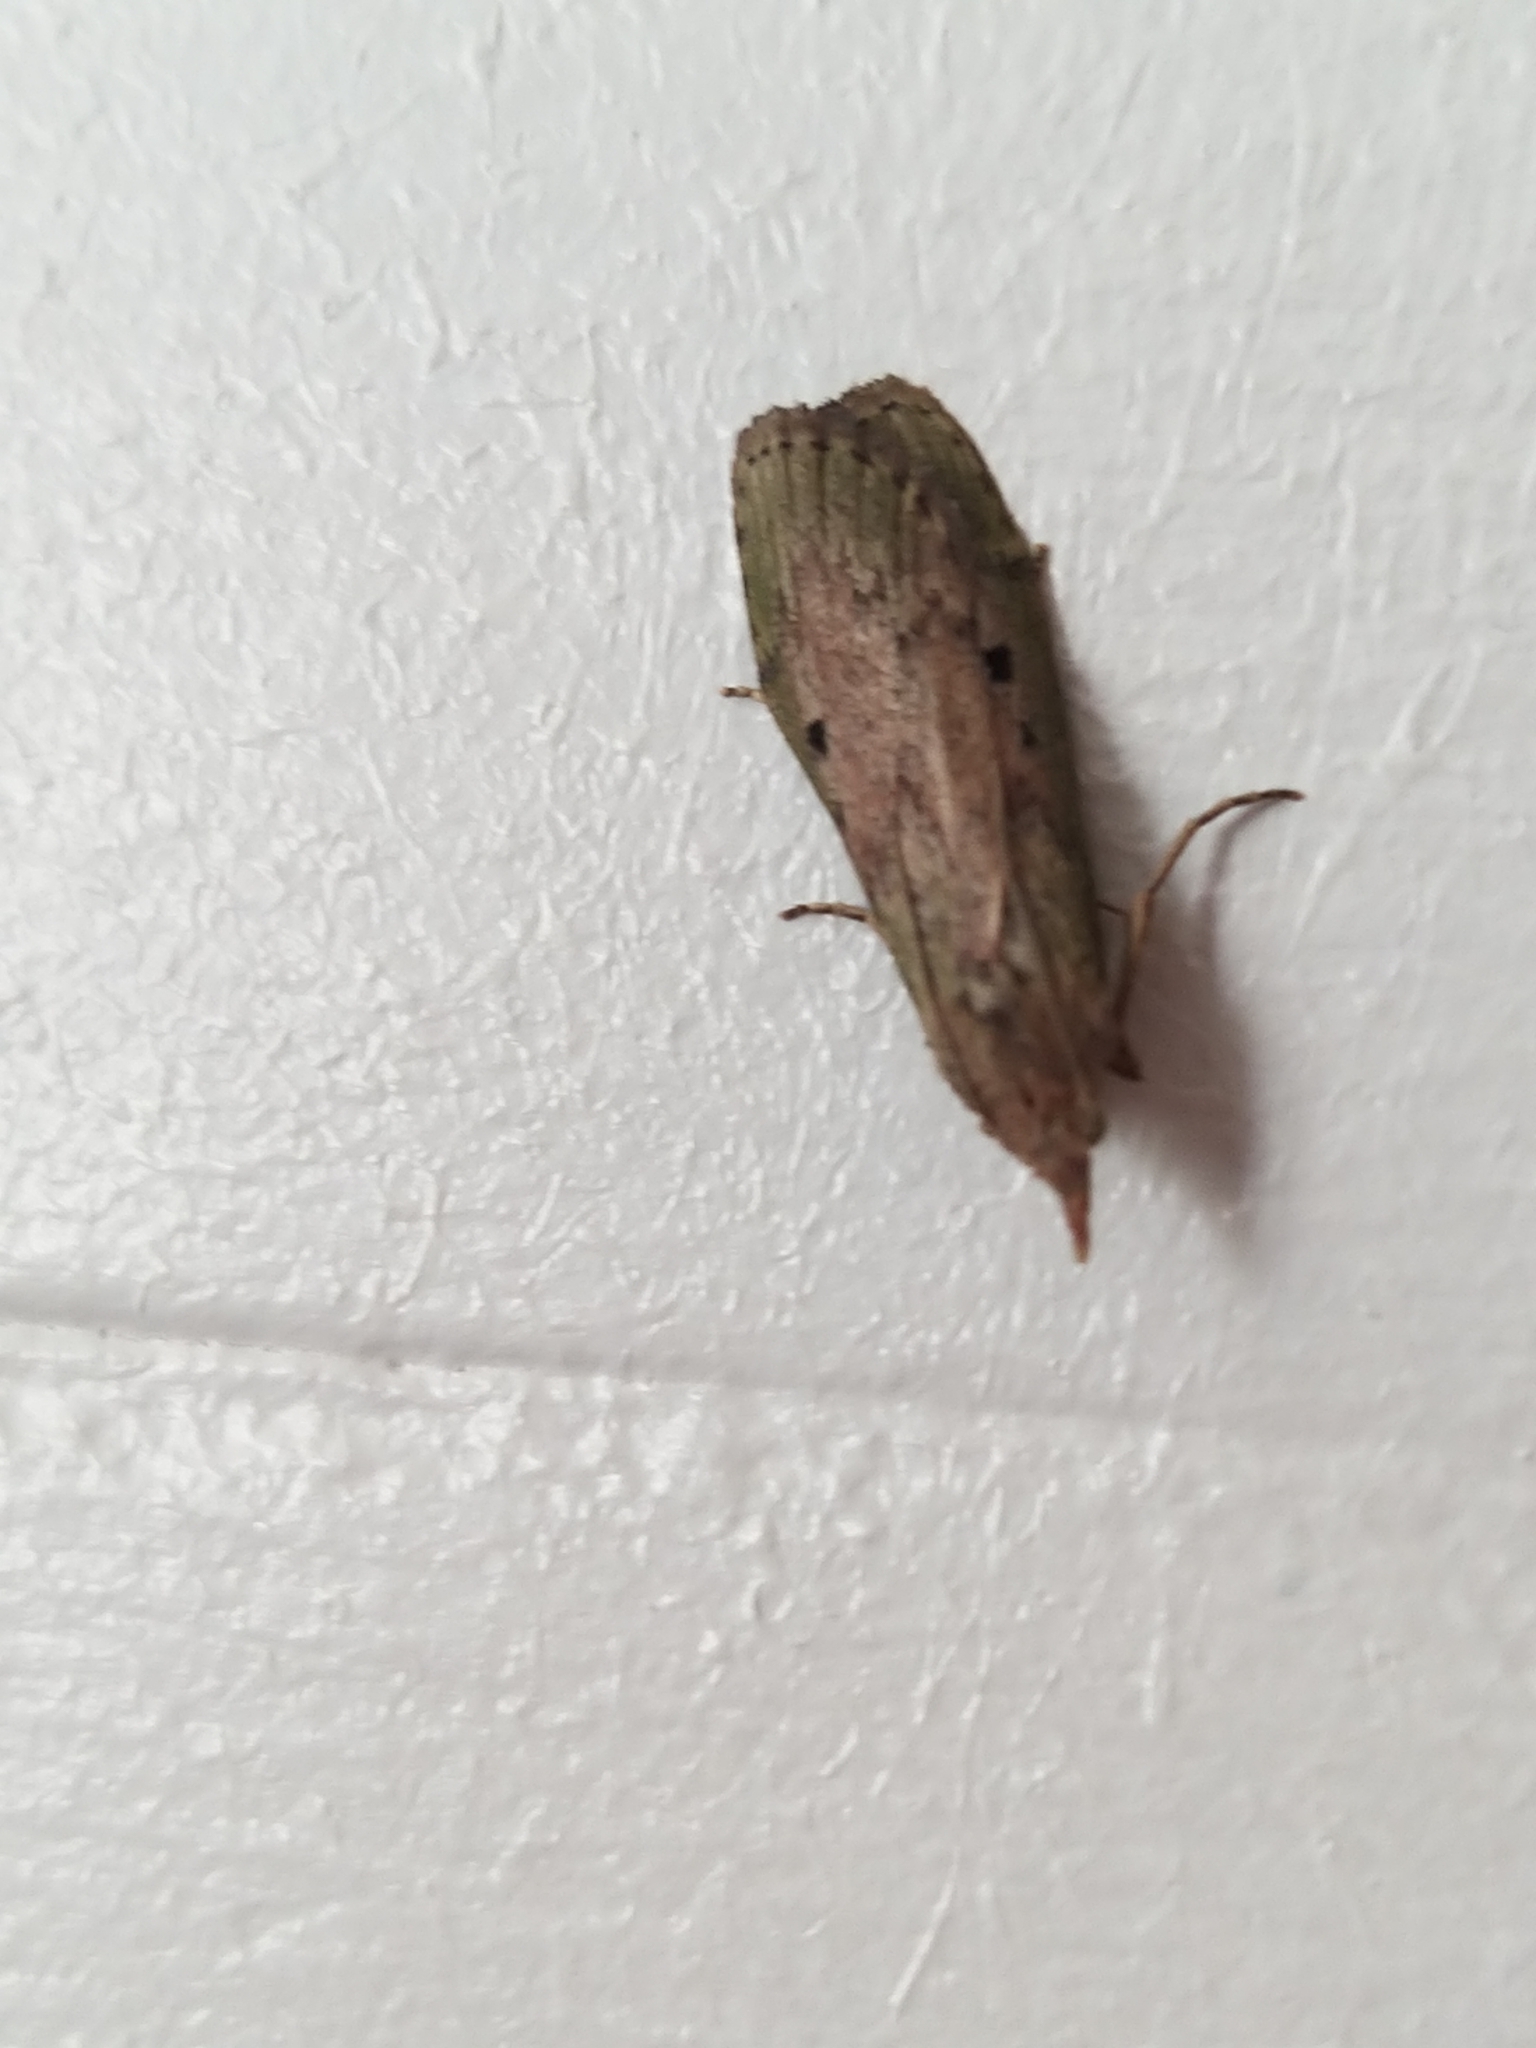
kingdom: Animalia
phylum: Arthropoda
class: Insecta
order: Lepidoptera
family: Pyralidae
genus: Aphomia
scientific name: Aphomia sociella
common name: Bee moth
